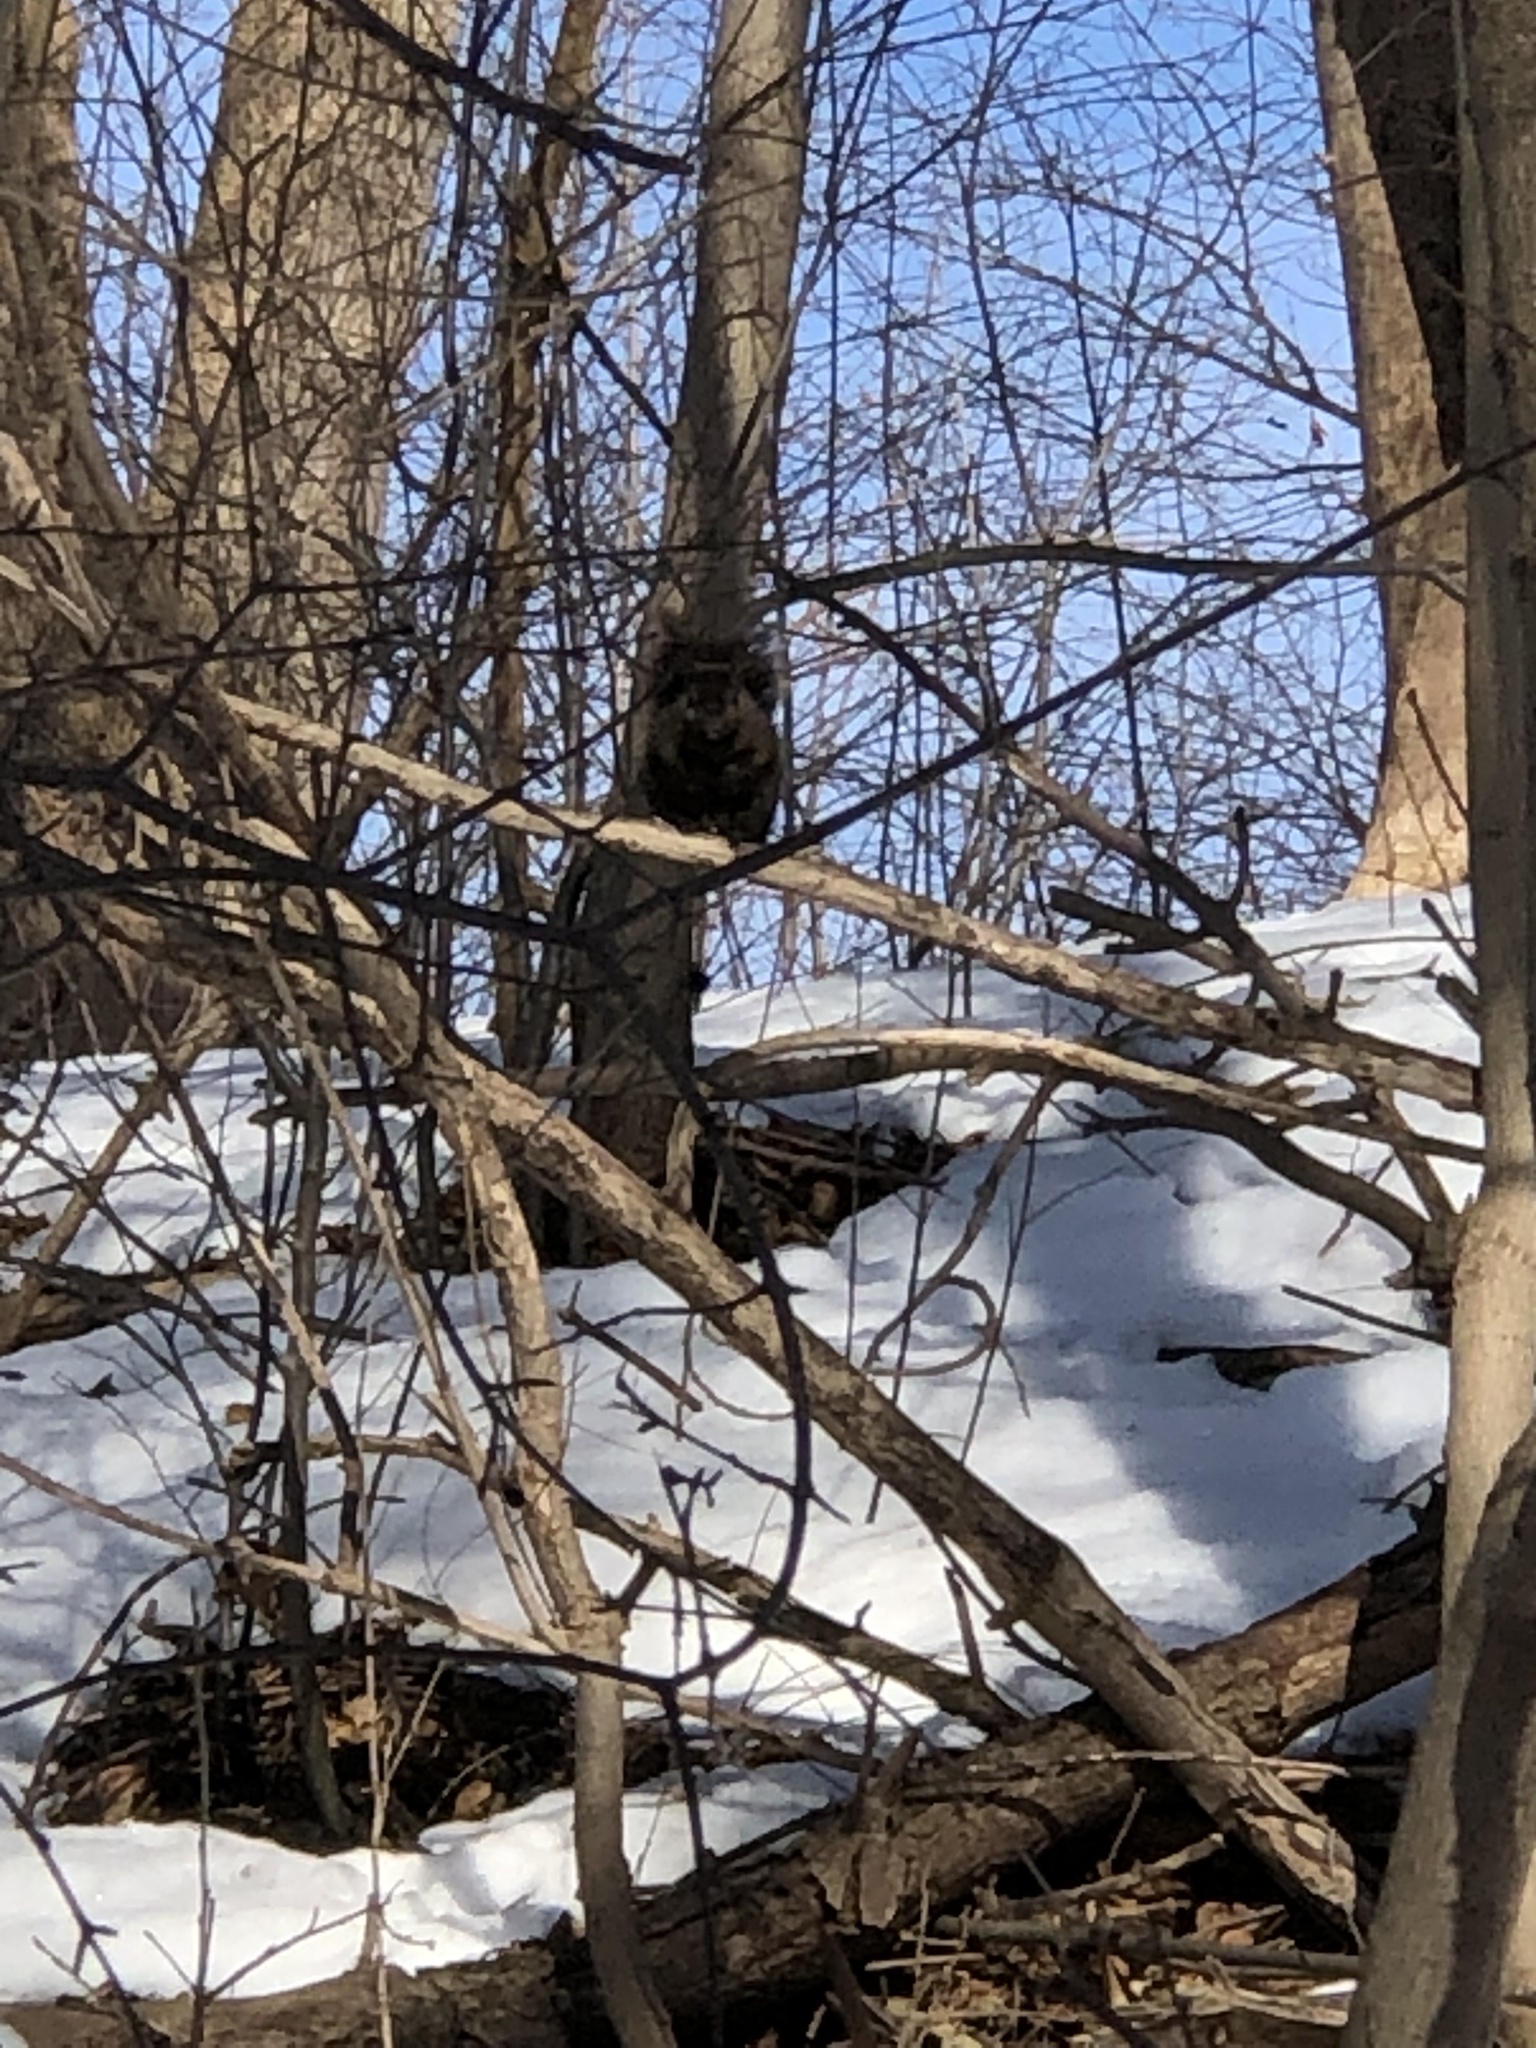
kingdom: Animalia
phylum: Chordata
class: Mammalia
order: Rodentia
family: Sciuridae
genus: Sciurus
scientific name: Sciurus carolinensis
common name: Eastern gray squirrel
